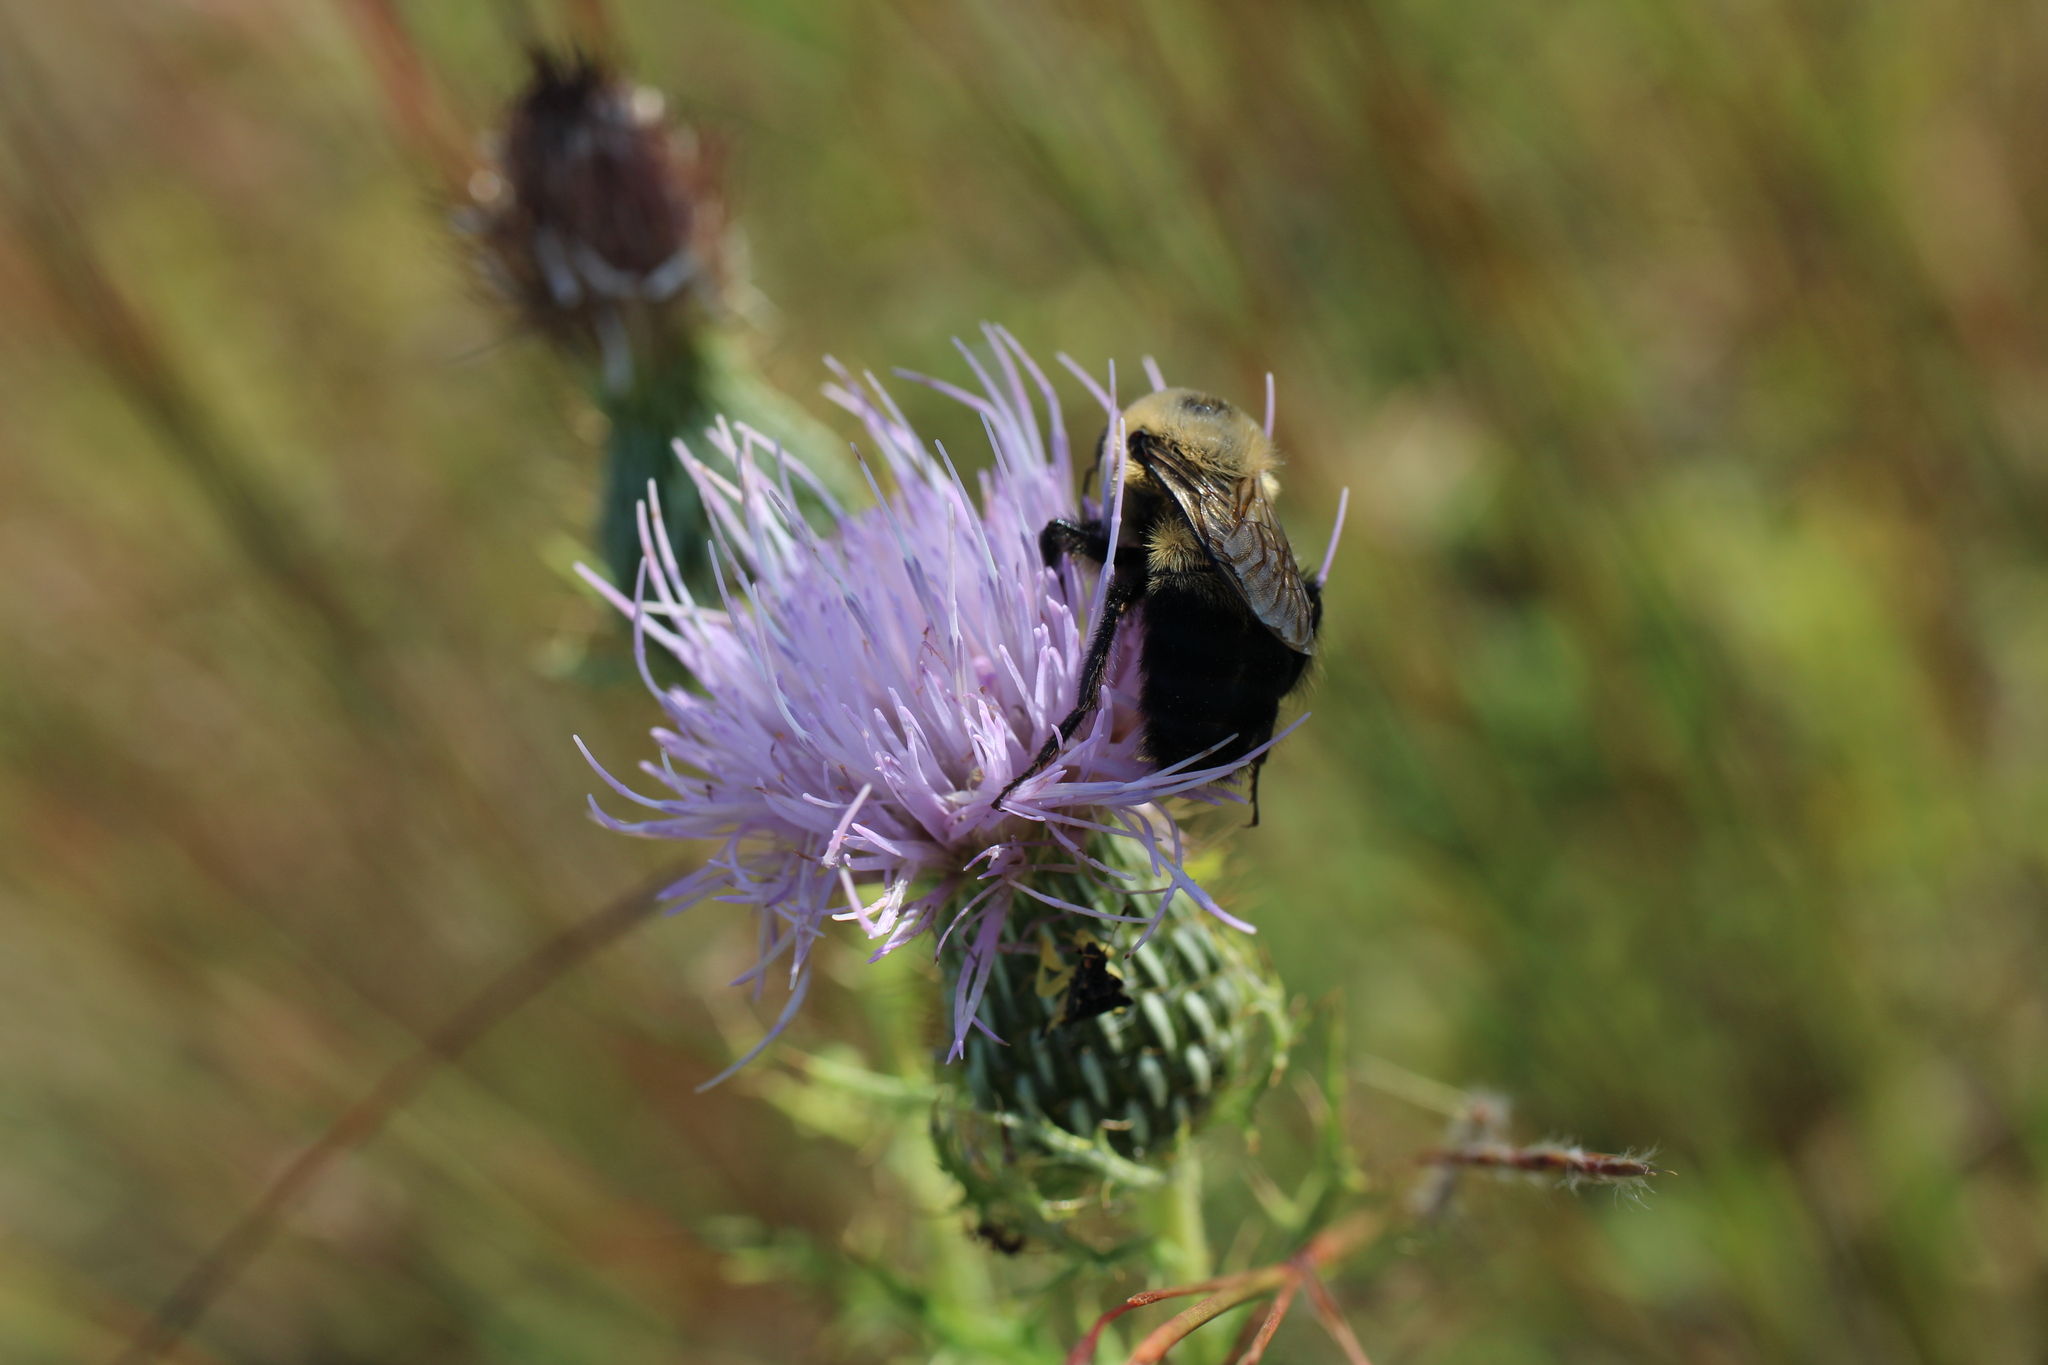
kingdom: Animalia
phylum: Arthropoda
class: Insecta
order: Hymenoptera
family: Apidae
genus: Bombus
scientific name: Bombus griseocollis
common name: Brown-belted bumble bee
